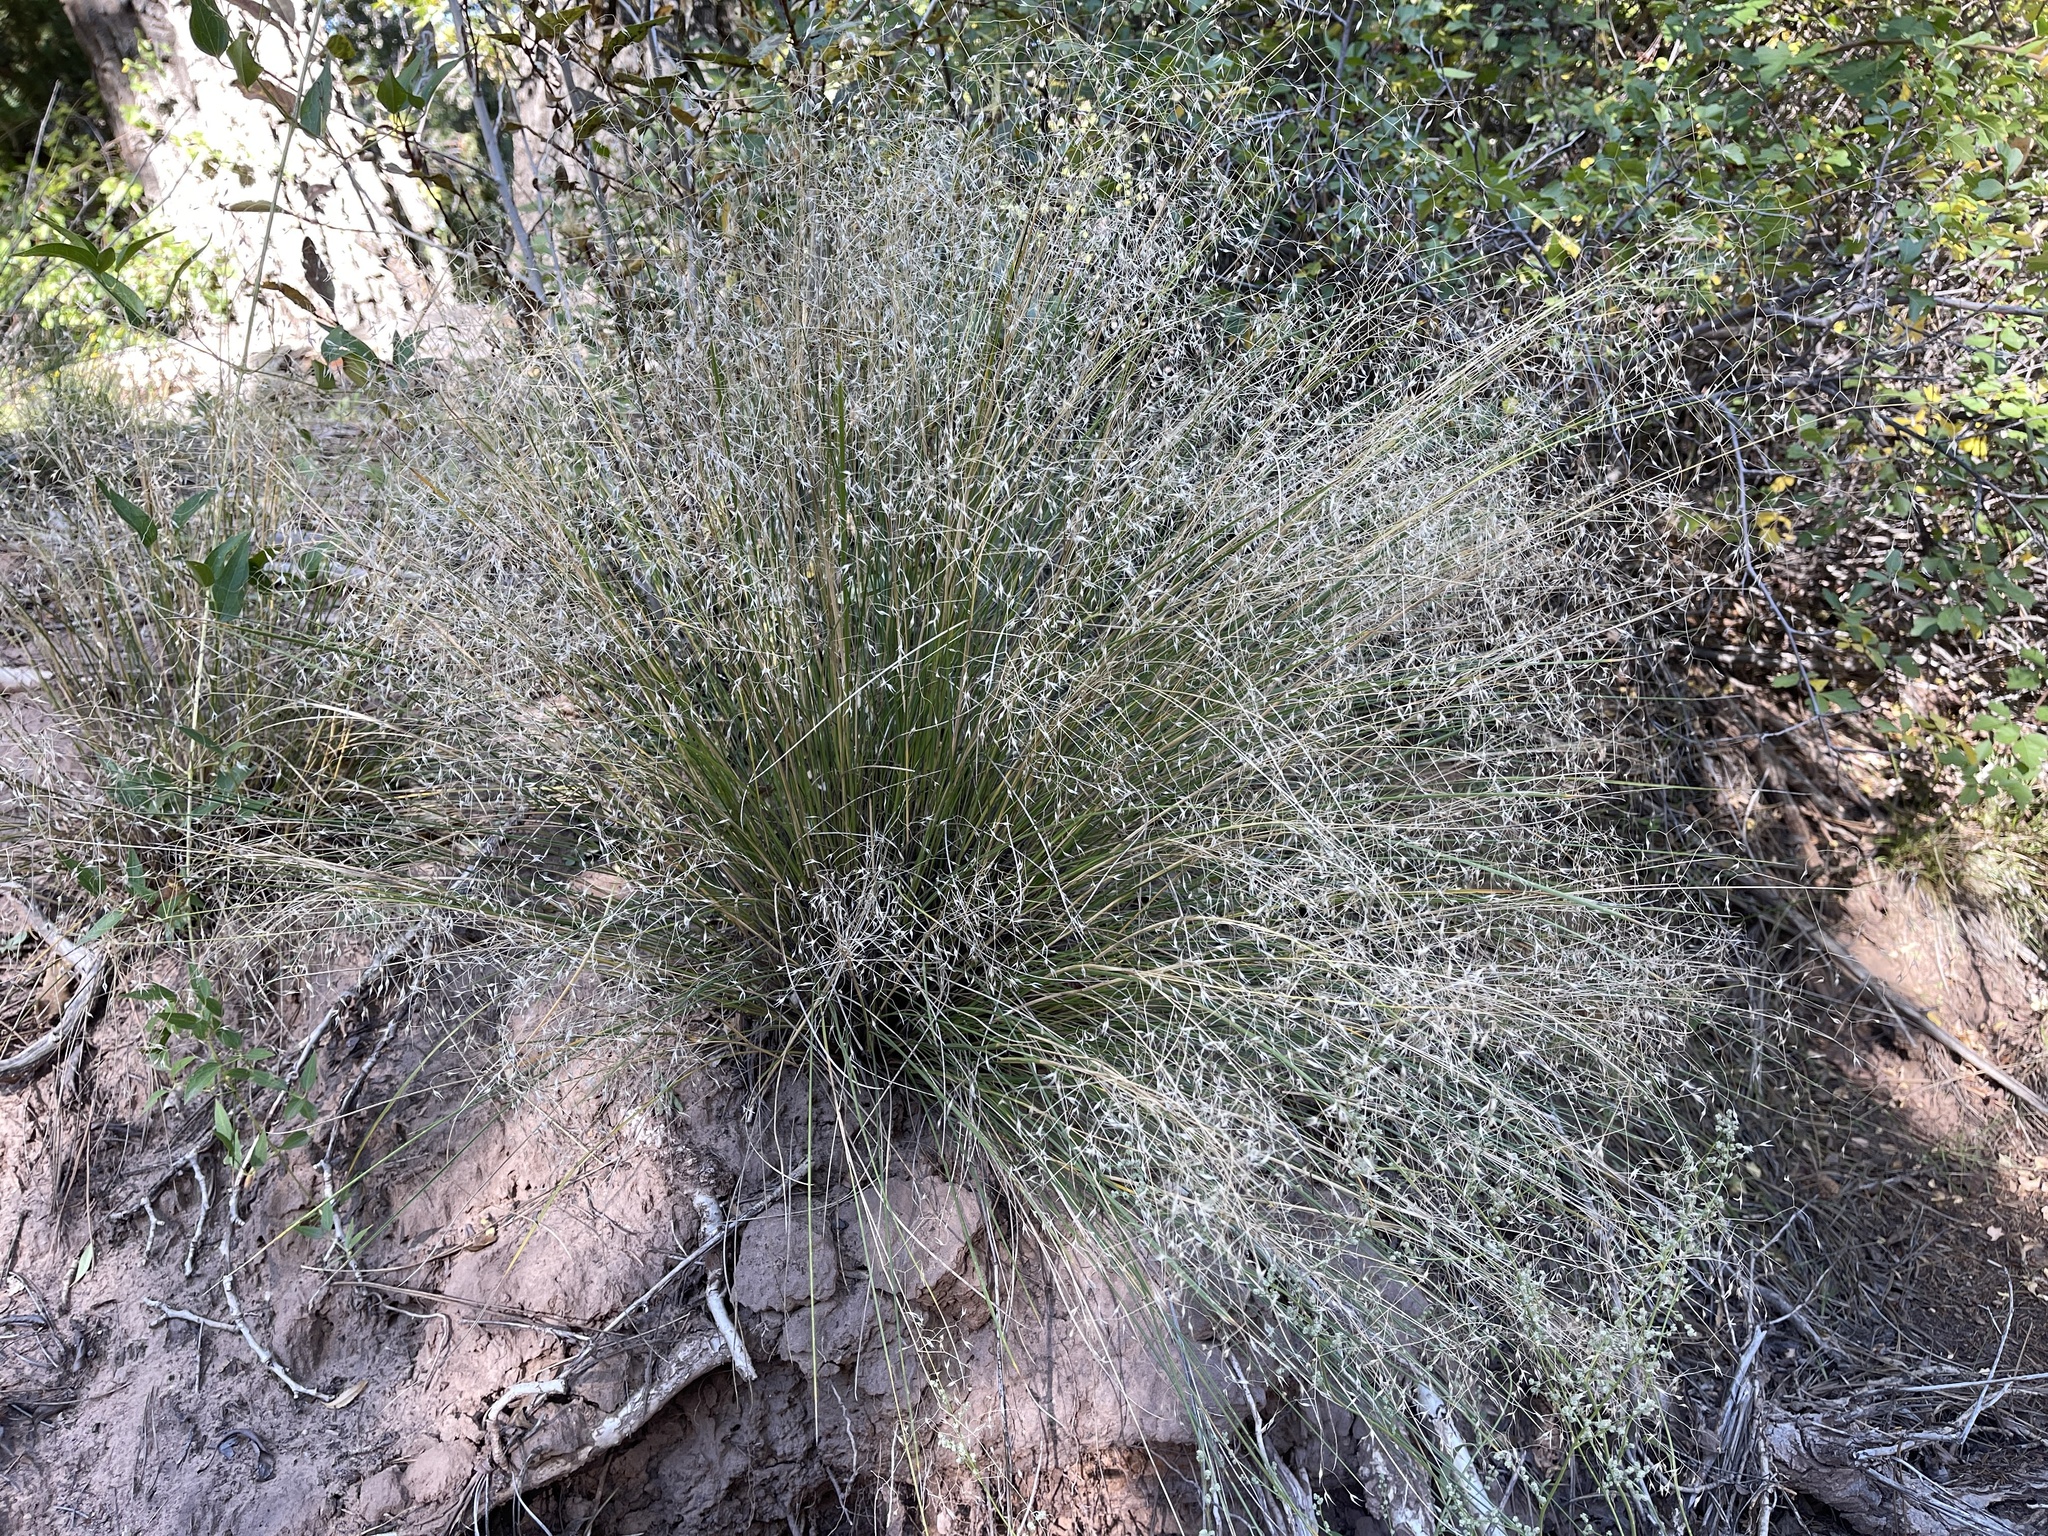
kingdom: Plantae
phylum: Tracheophyta
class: Liliopsida
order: Poales
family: Poaceae
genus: Eriocoma
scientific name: Eriocoma hymenoides
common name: Indian mountain ricegrass
